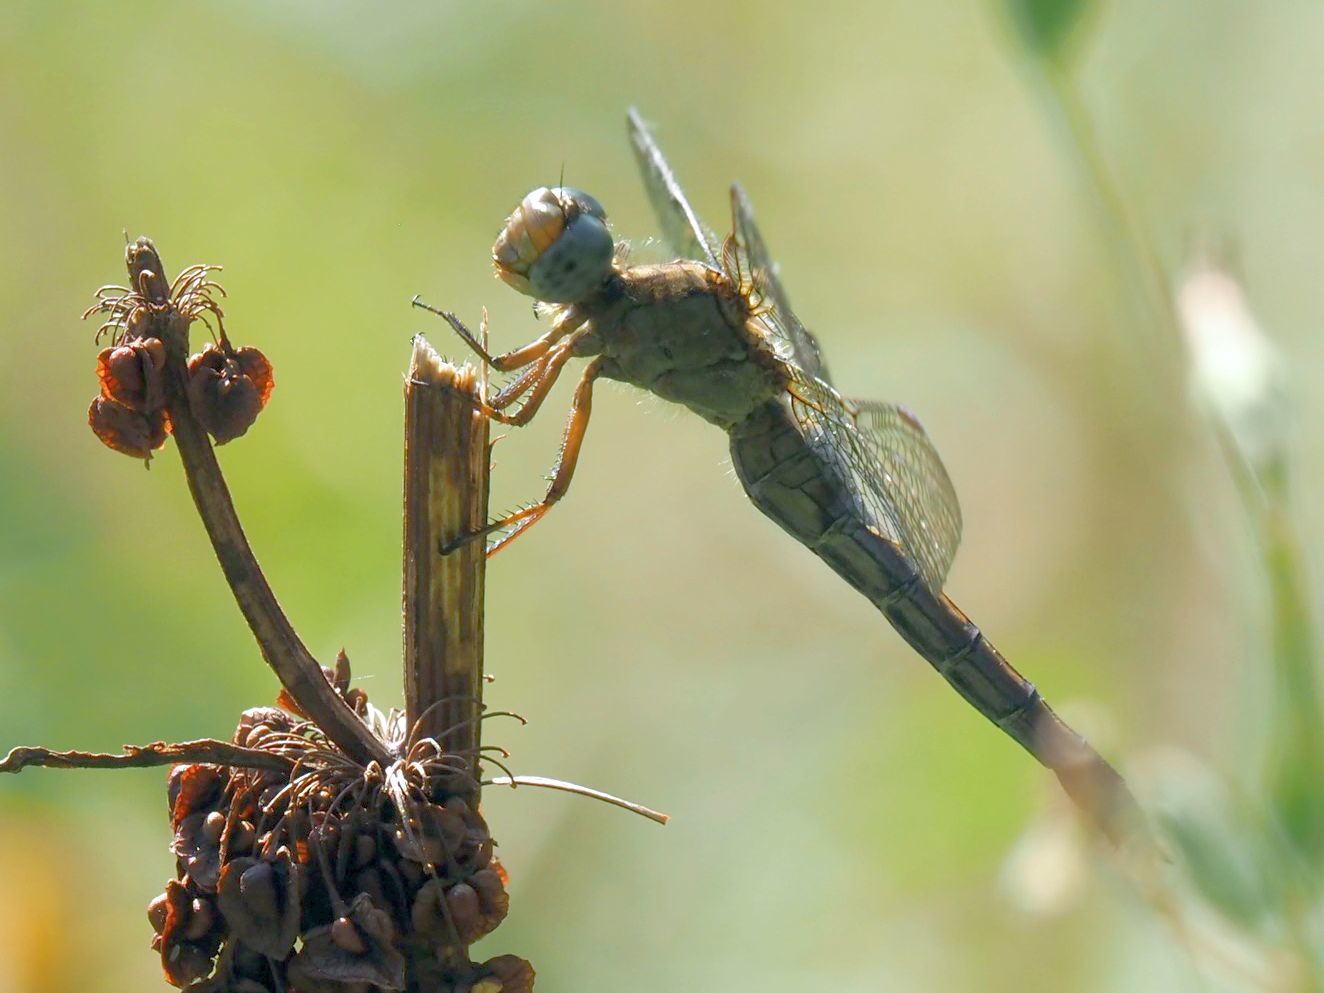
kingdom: Animalia
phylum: Arthropoda
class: Insecta
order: Odonata
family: Libellulidae
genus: Orthetrum
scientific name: Orthetrum coerulescens
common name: Keeled skimmer
